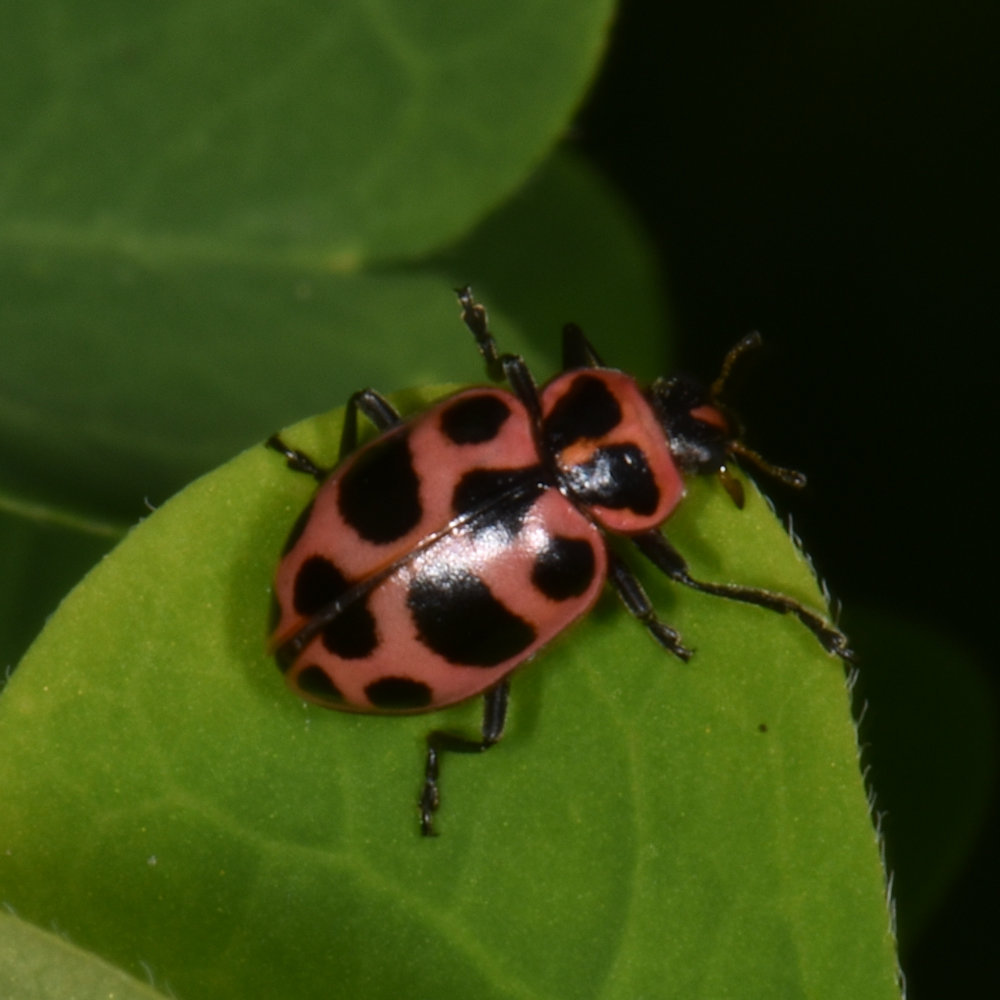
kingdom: Animalia
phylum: Arthropoda
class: Insecta
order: Coleoptera
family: Coccinellidae
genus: Coleomegilla
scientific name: Coleomegilla maculata
